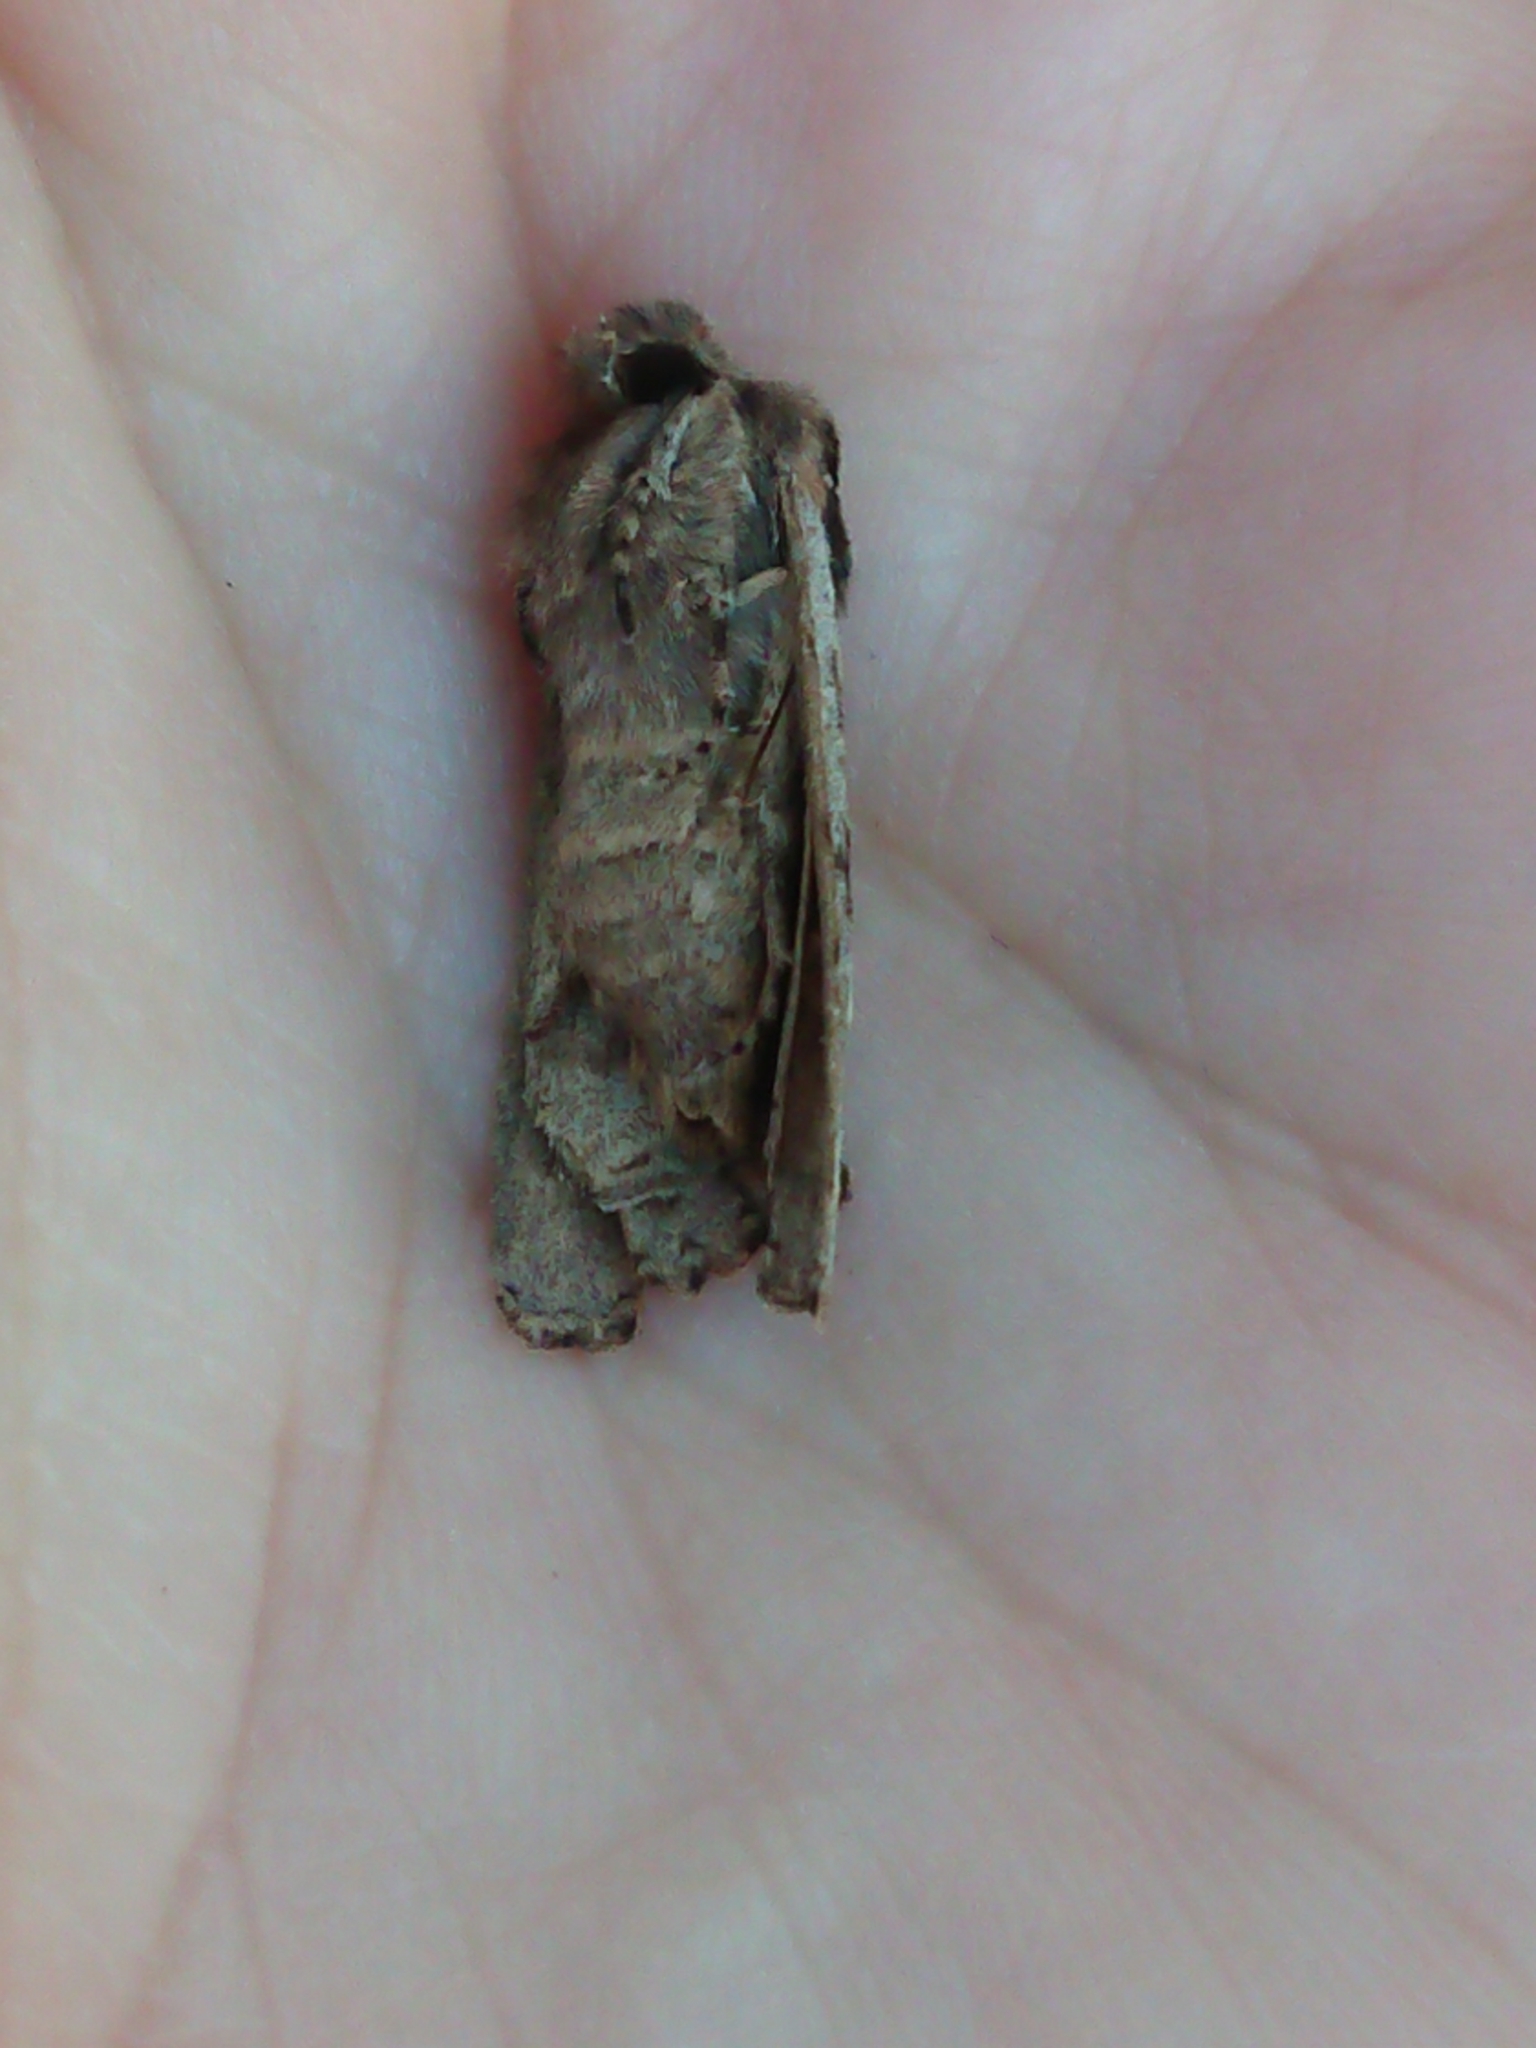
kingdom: Animalia
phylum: Arthropoda
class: Insecta
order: Lepidoptera
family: Noctuidae
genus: Ichneutica
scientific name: Ichneutica
